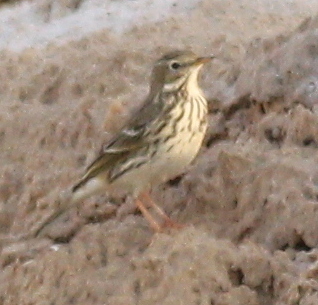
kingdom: Animalia
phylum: Chordata
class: Aves
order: Passeriformes
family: Motacillidae
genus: Anthus
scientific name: Anthus pratensis
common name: Meadow pipit
